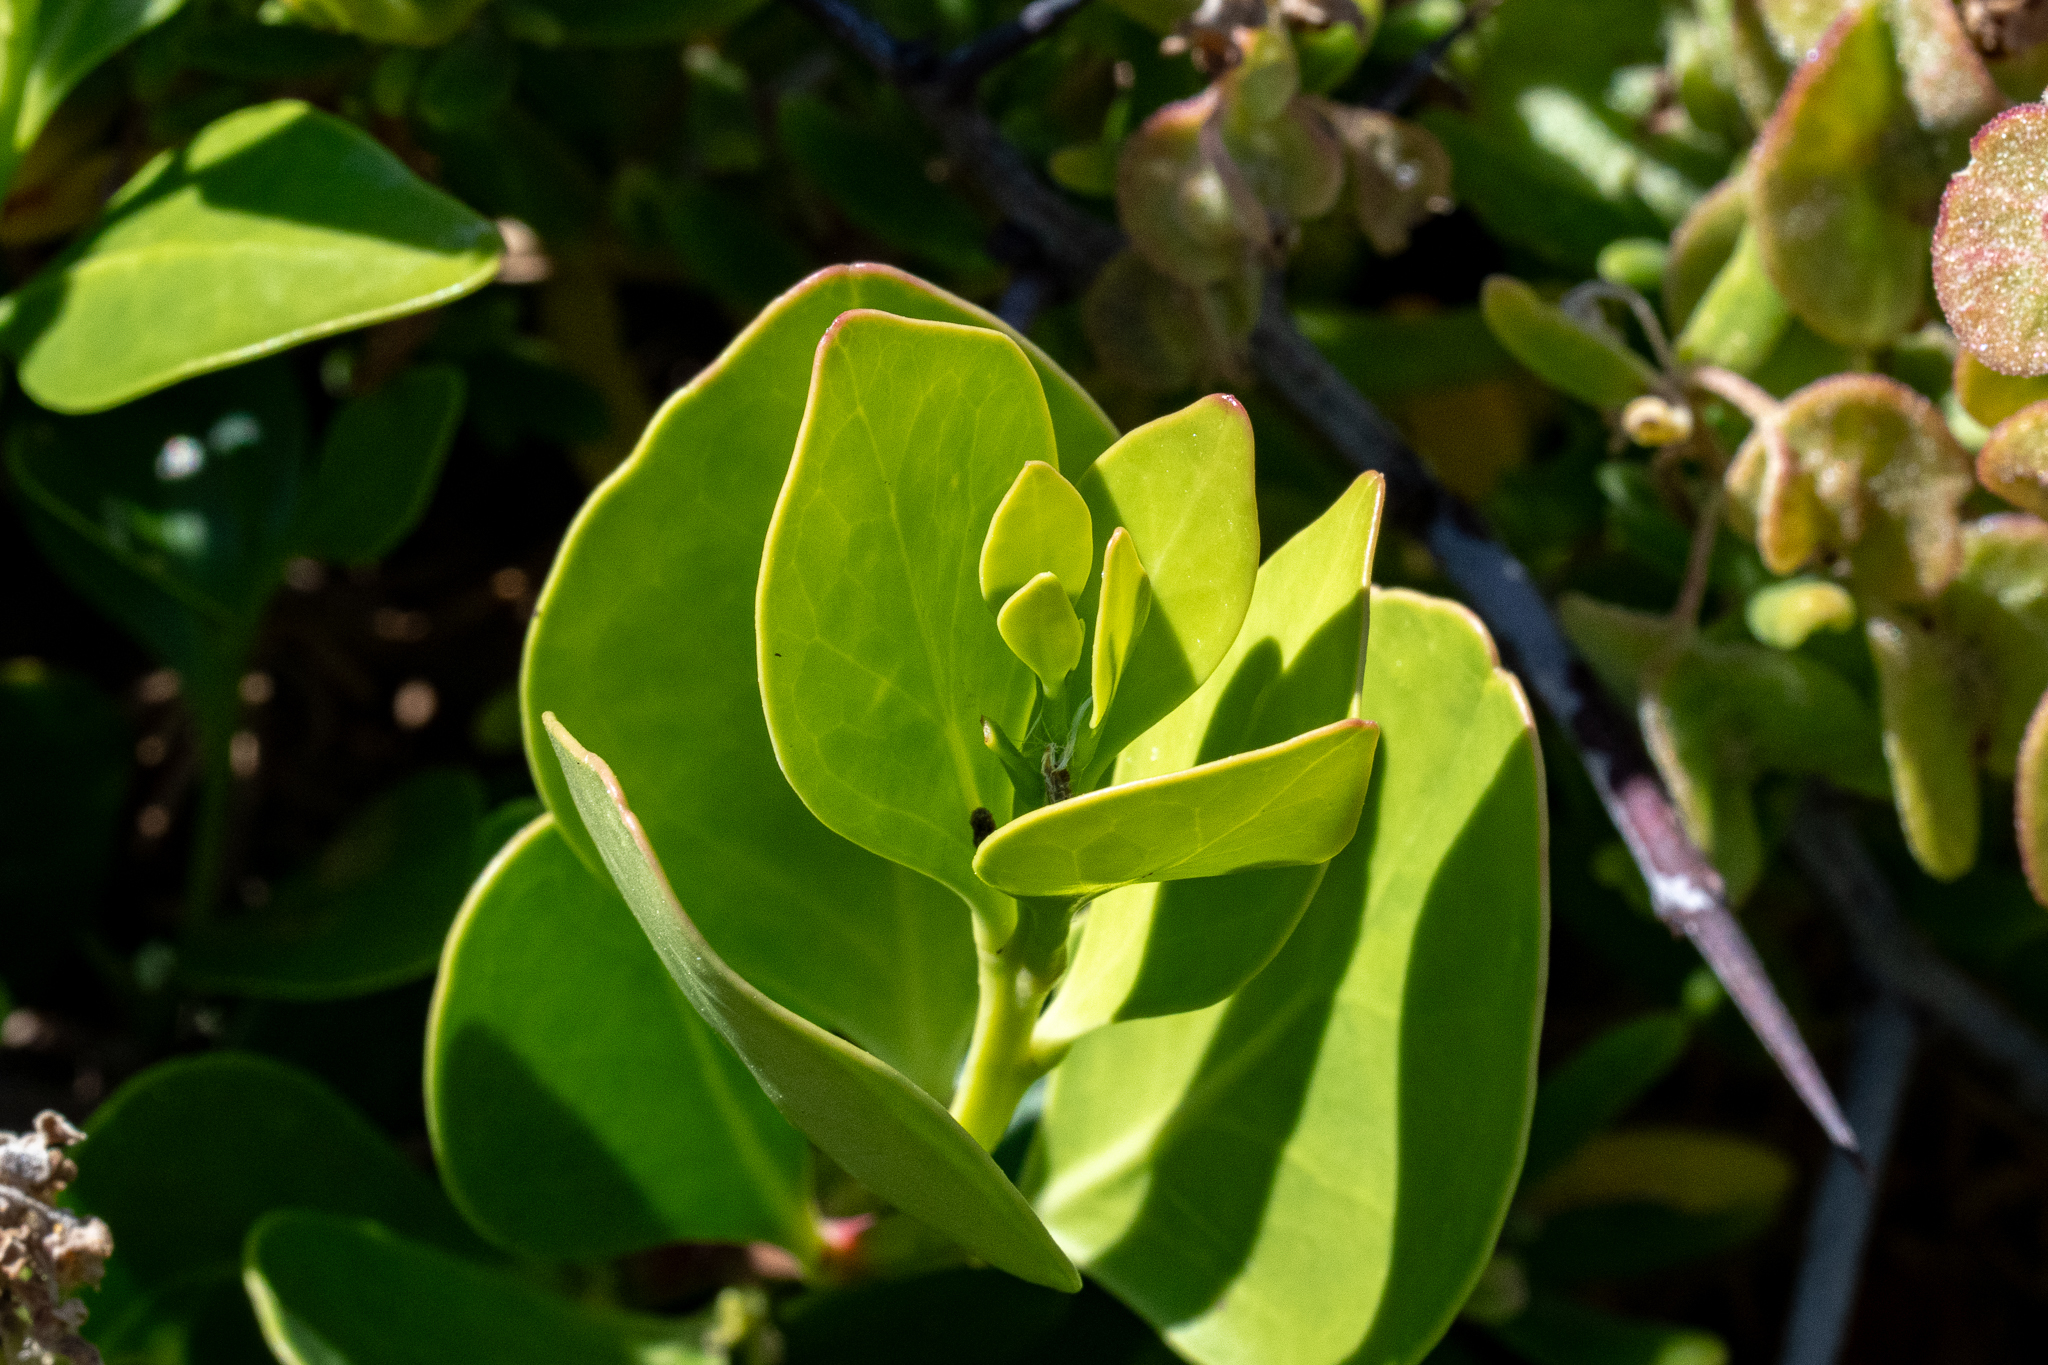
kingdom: Plantae
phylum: Tracheophyta
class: Magnoliopsida
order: Celastrales
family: Celastraceae
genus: Pterocelastrus
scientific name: Pterocelastrus tricuspidatus
